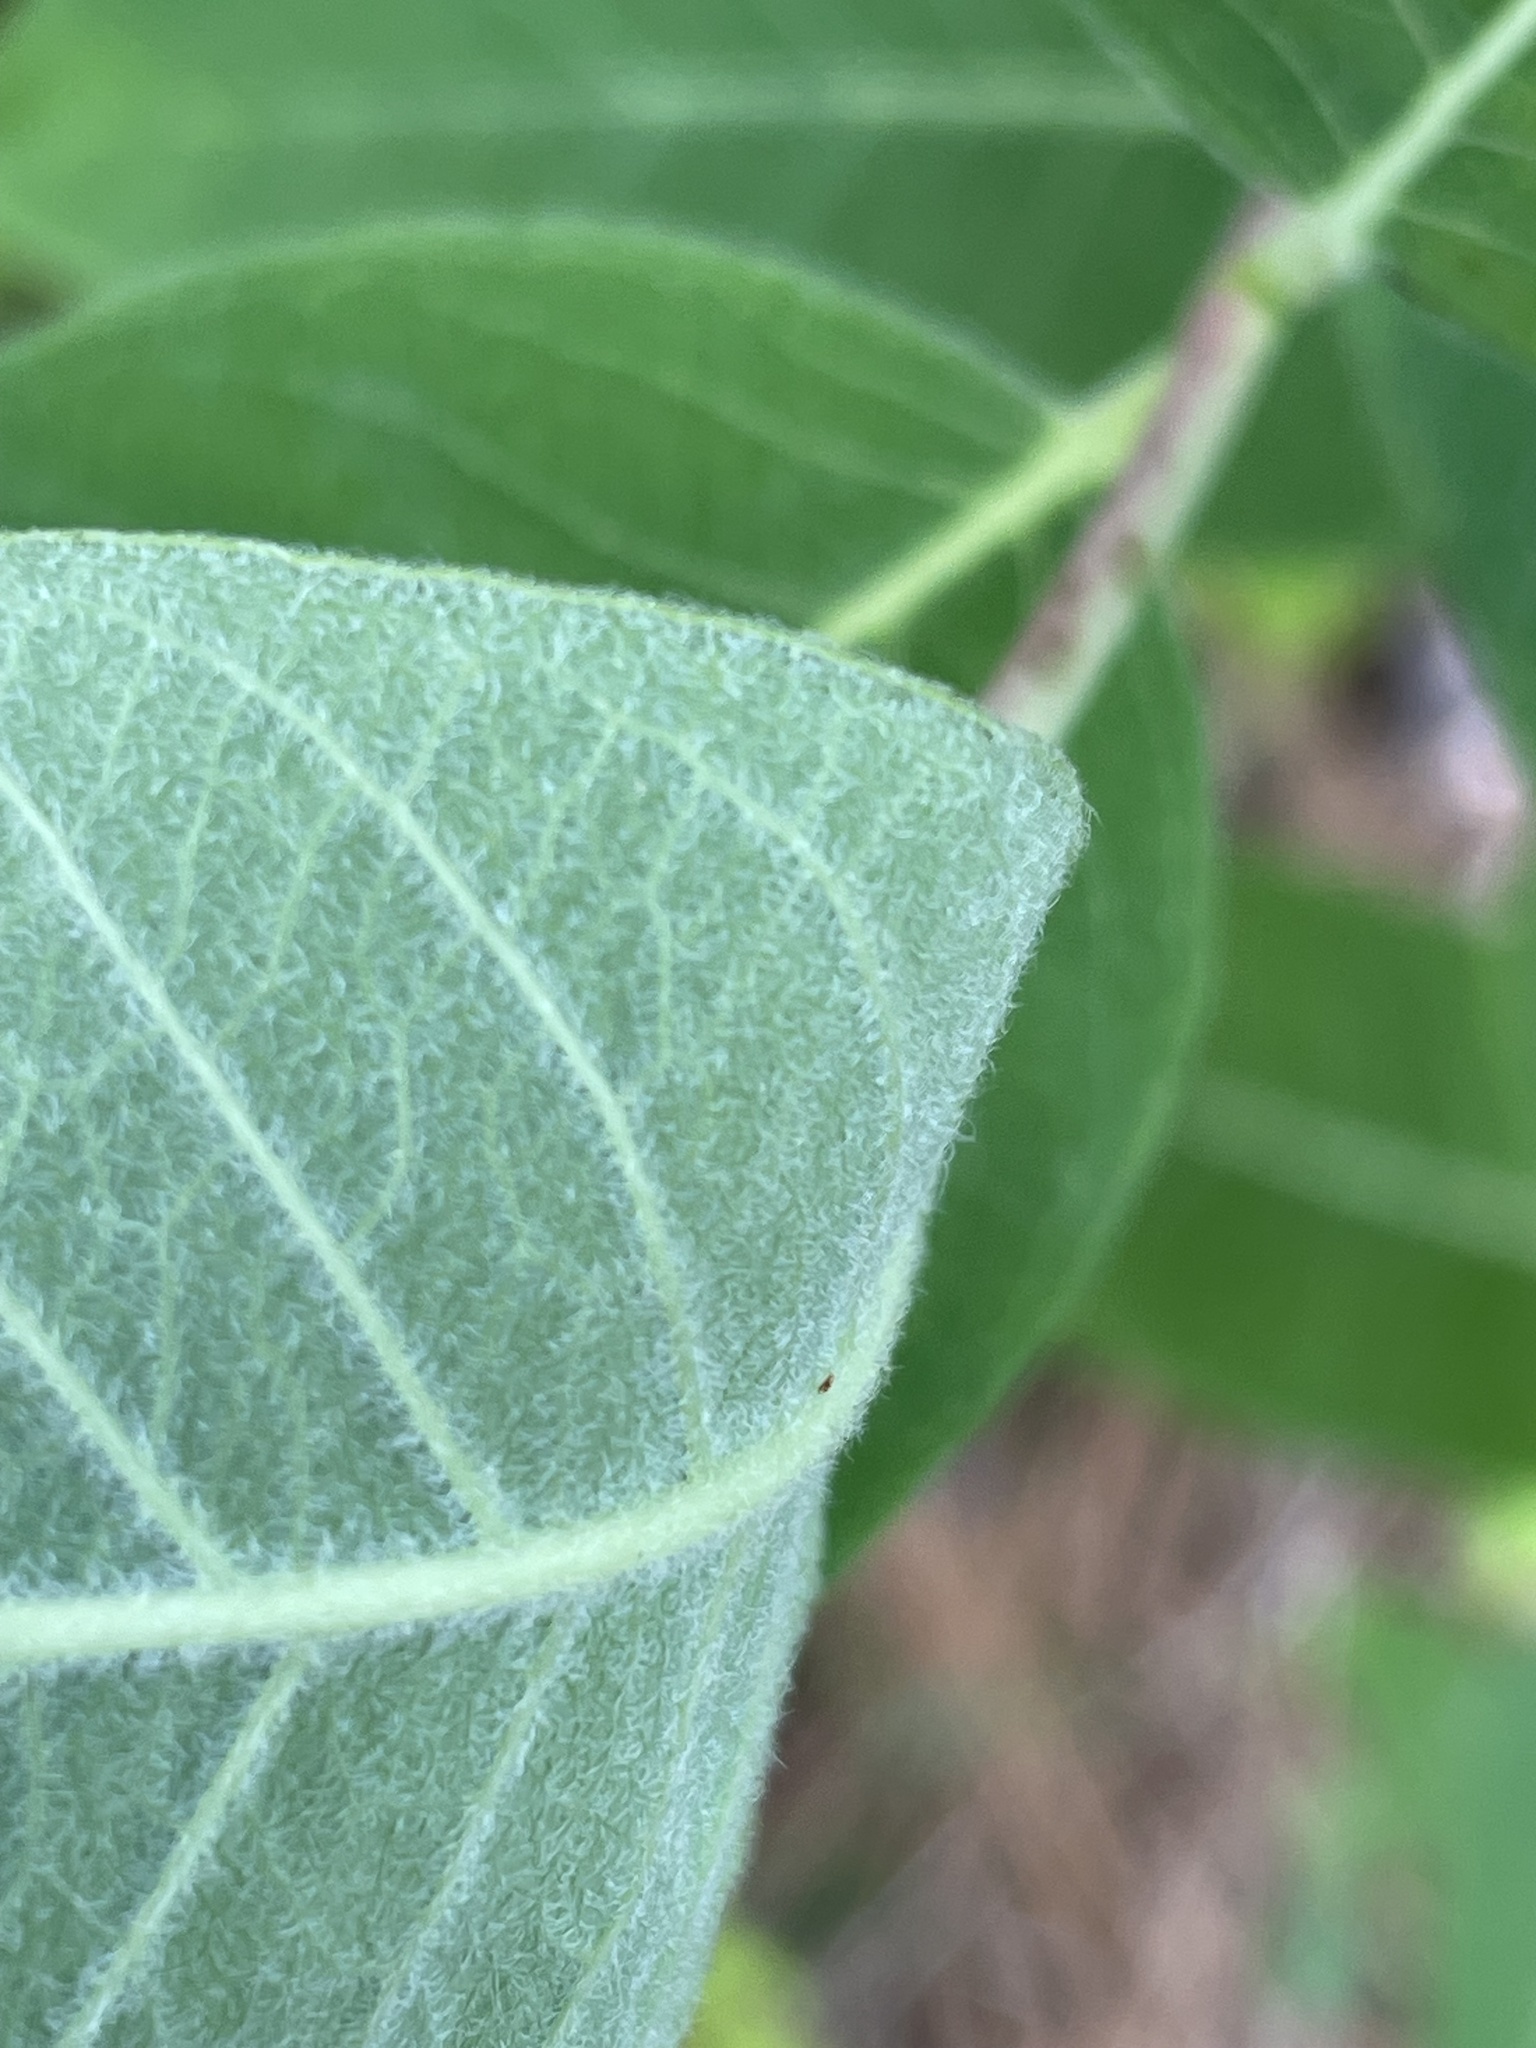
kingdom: Plantae
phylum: Tracheophyta
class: Magnoliopsida
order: Gentianales
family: Apocynaceae
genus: Apocynum
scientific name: Apocynum cannabinum
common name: Hemp dogbane
